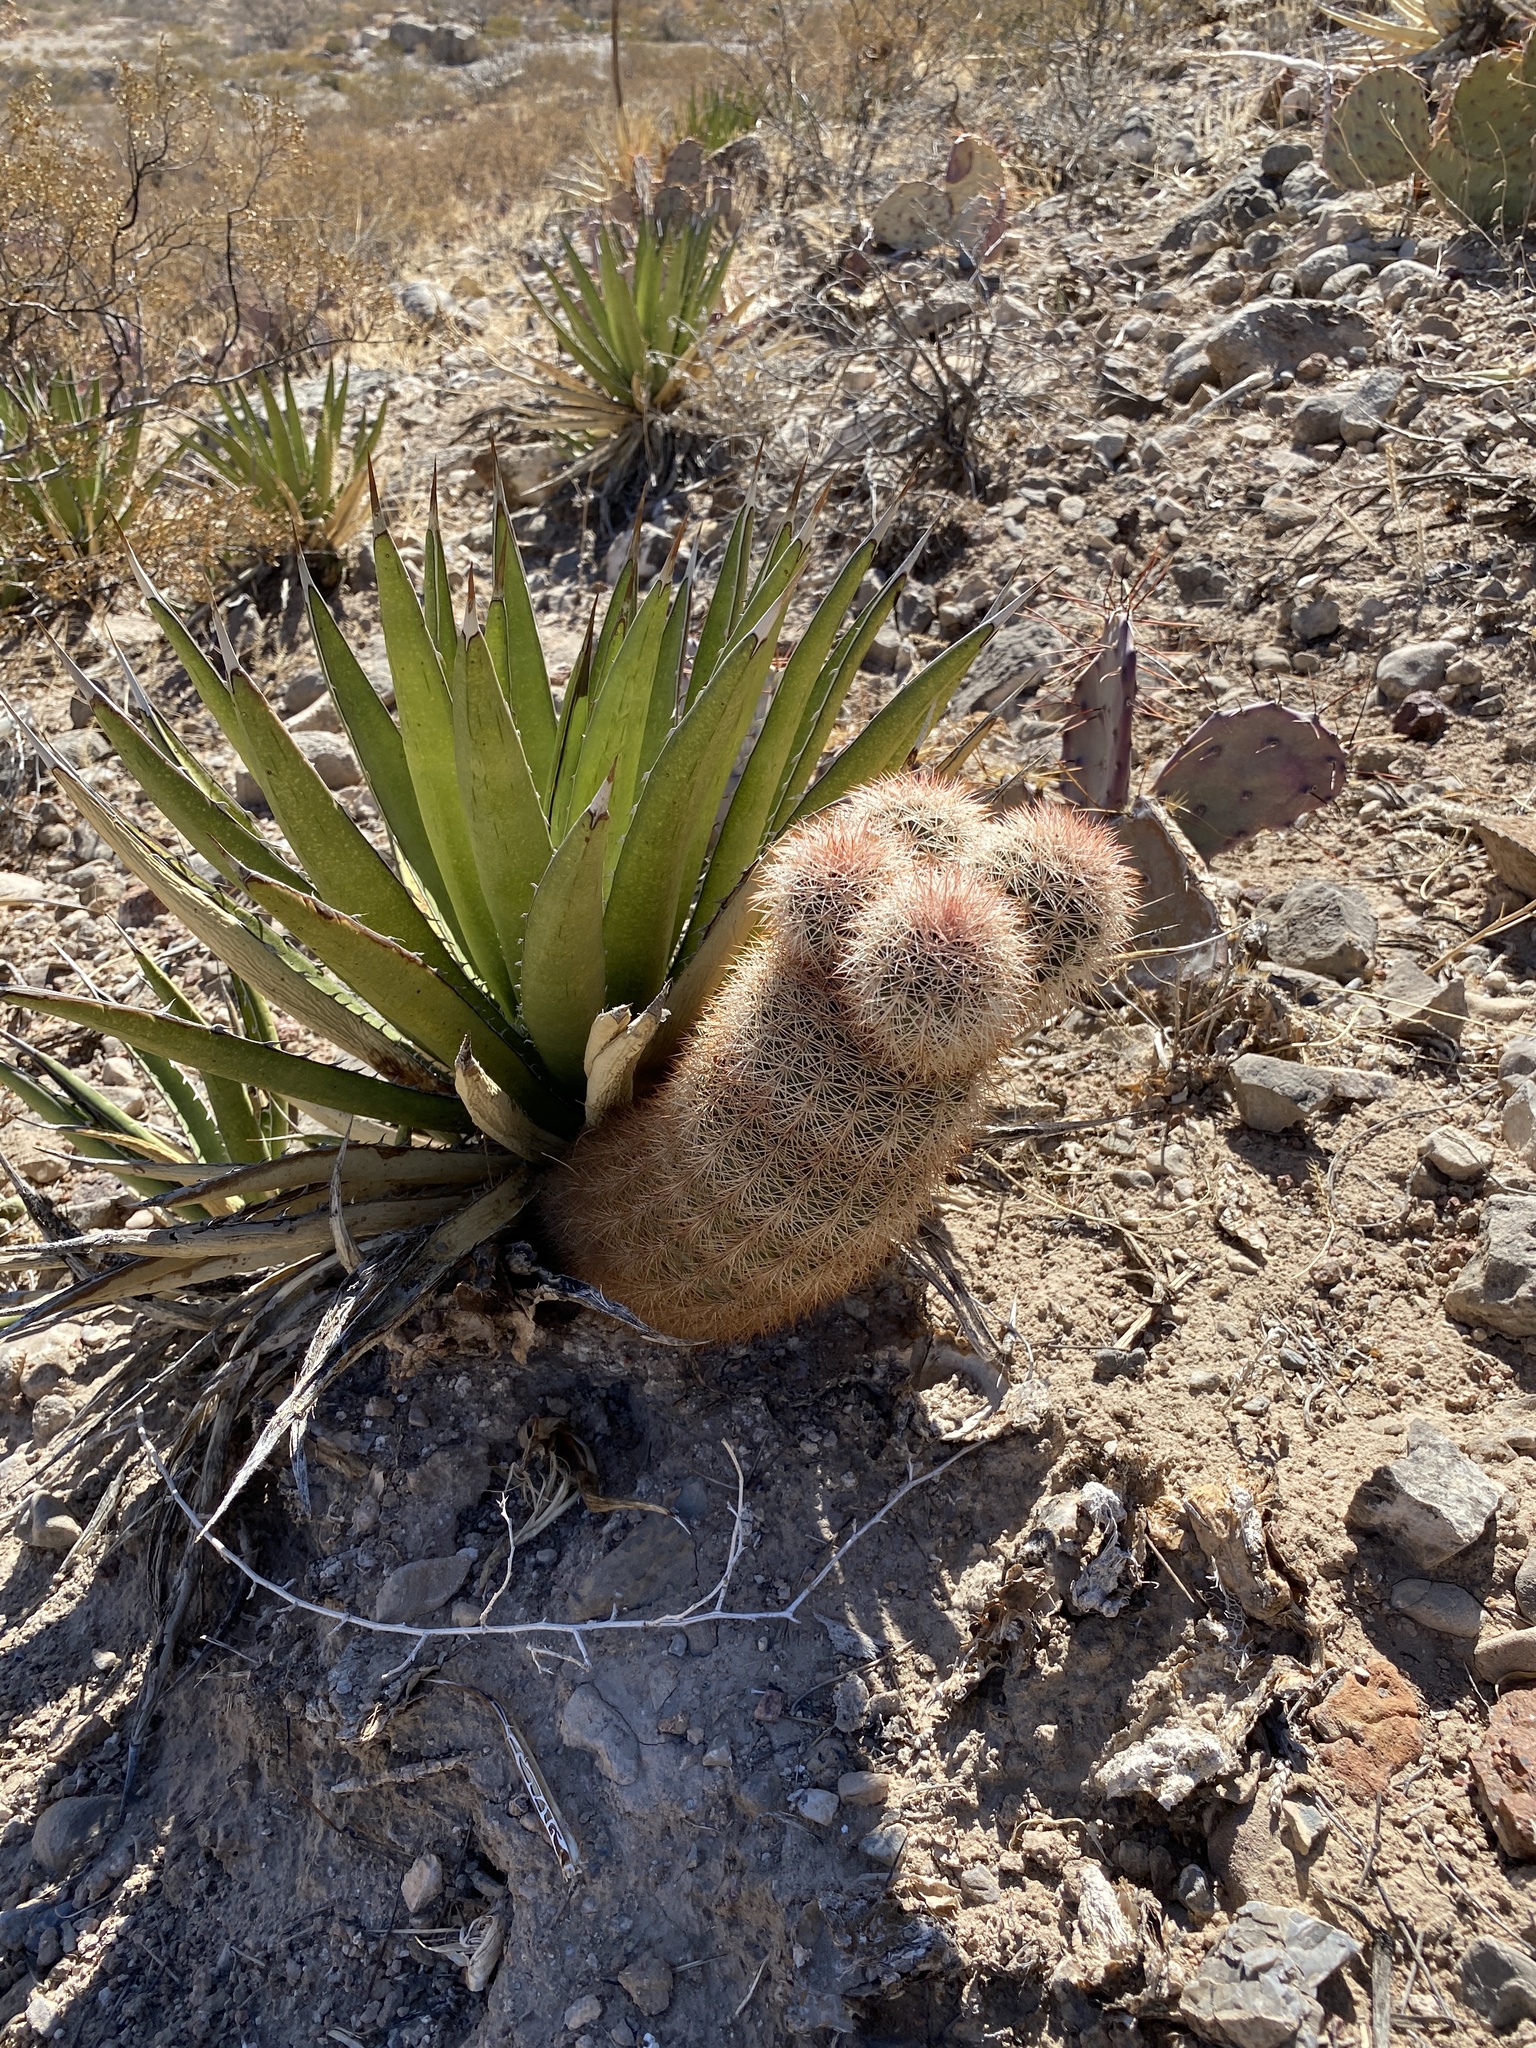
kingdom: Plantae
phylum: Tracheophyta
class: Magnoliopsida
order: Caryophyllales
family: Cactaceae
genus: Echinocereus
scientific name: Echinocereus dasyacanthus
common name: Spiny hedgehog cactus
